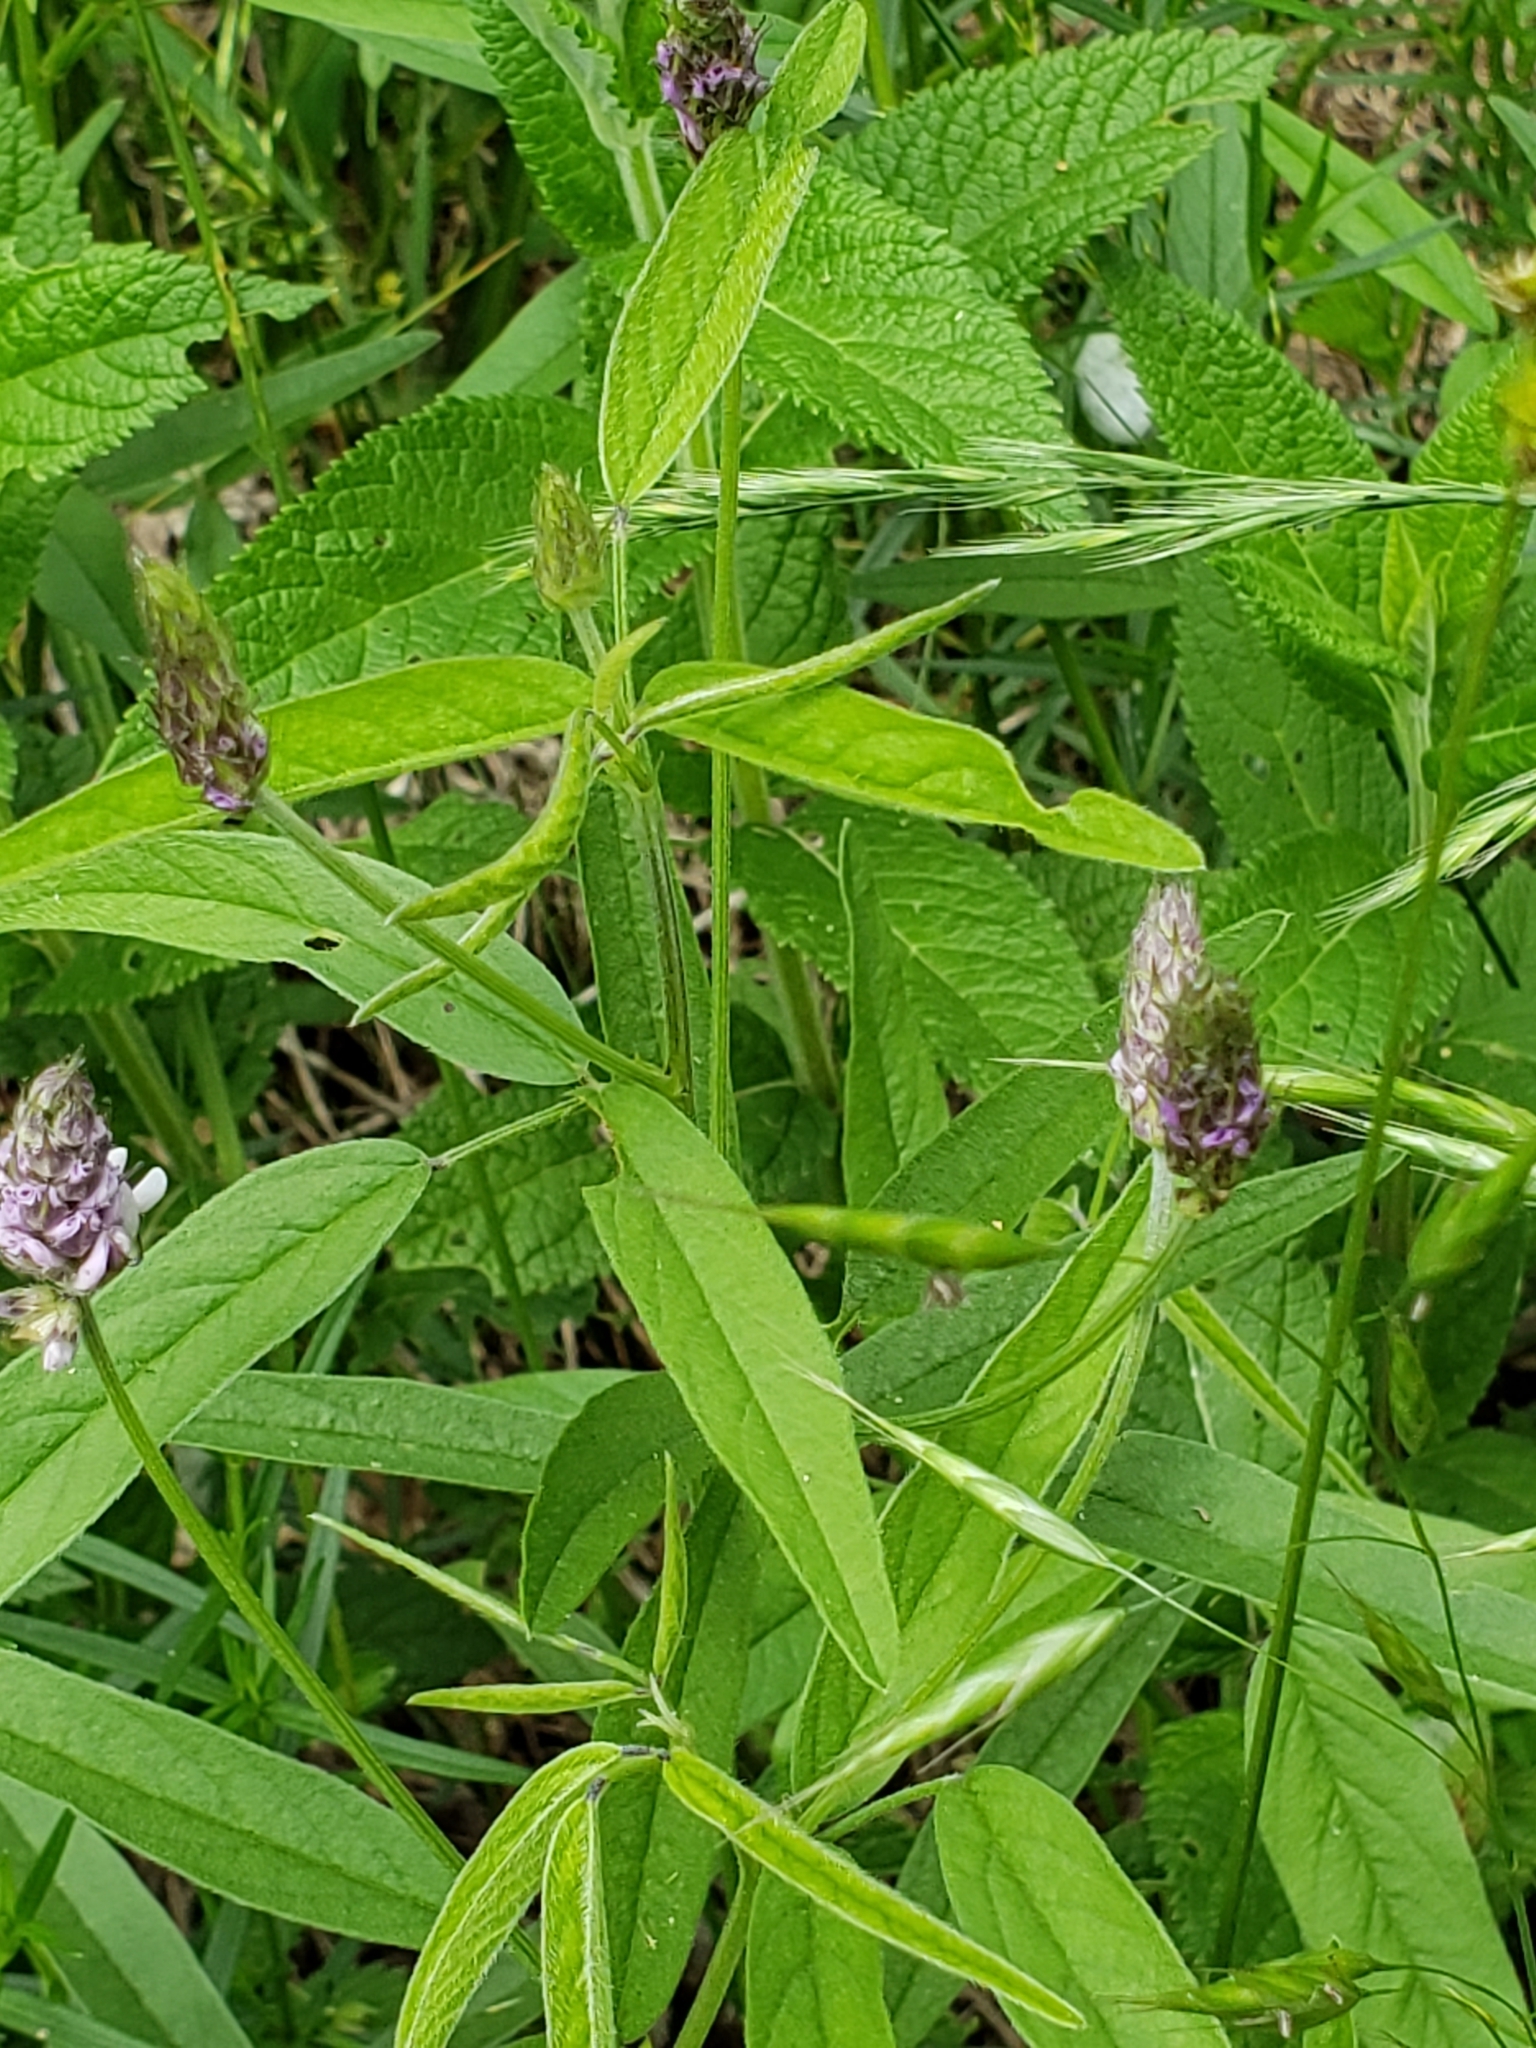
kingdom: Plantae
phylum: Tracheophyta
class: Magnoliopsida
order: Fabales
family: Fabaceae
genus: Orbexilum
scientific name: Orbexilum pedunculatum
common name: Sampson's snakeroot
